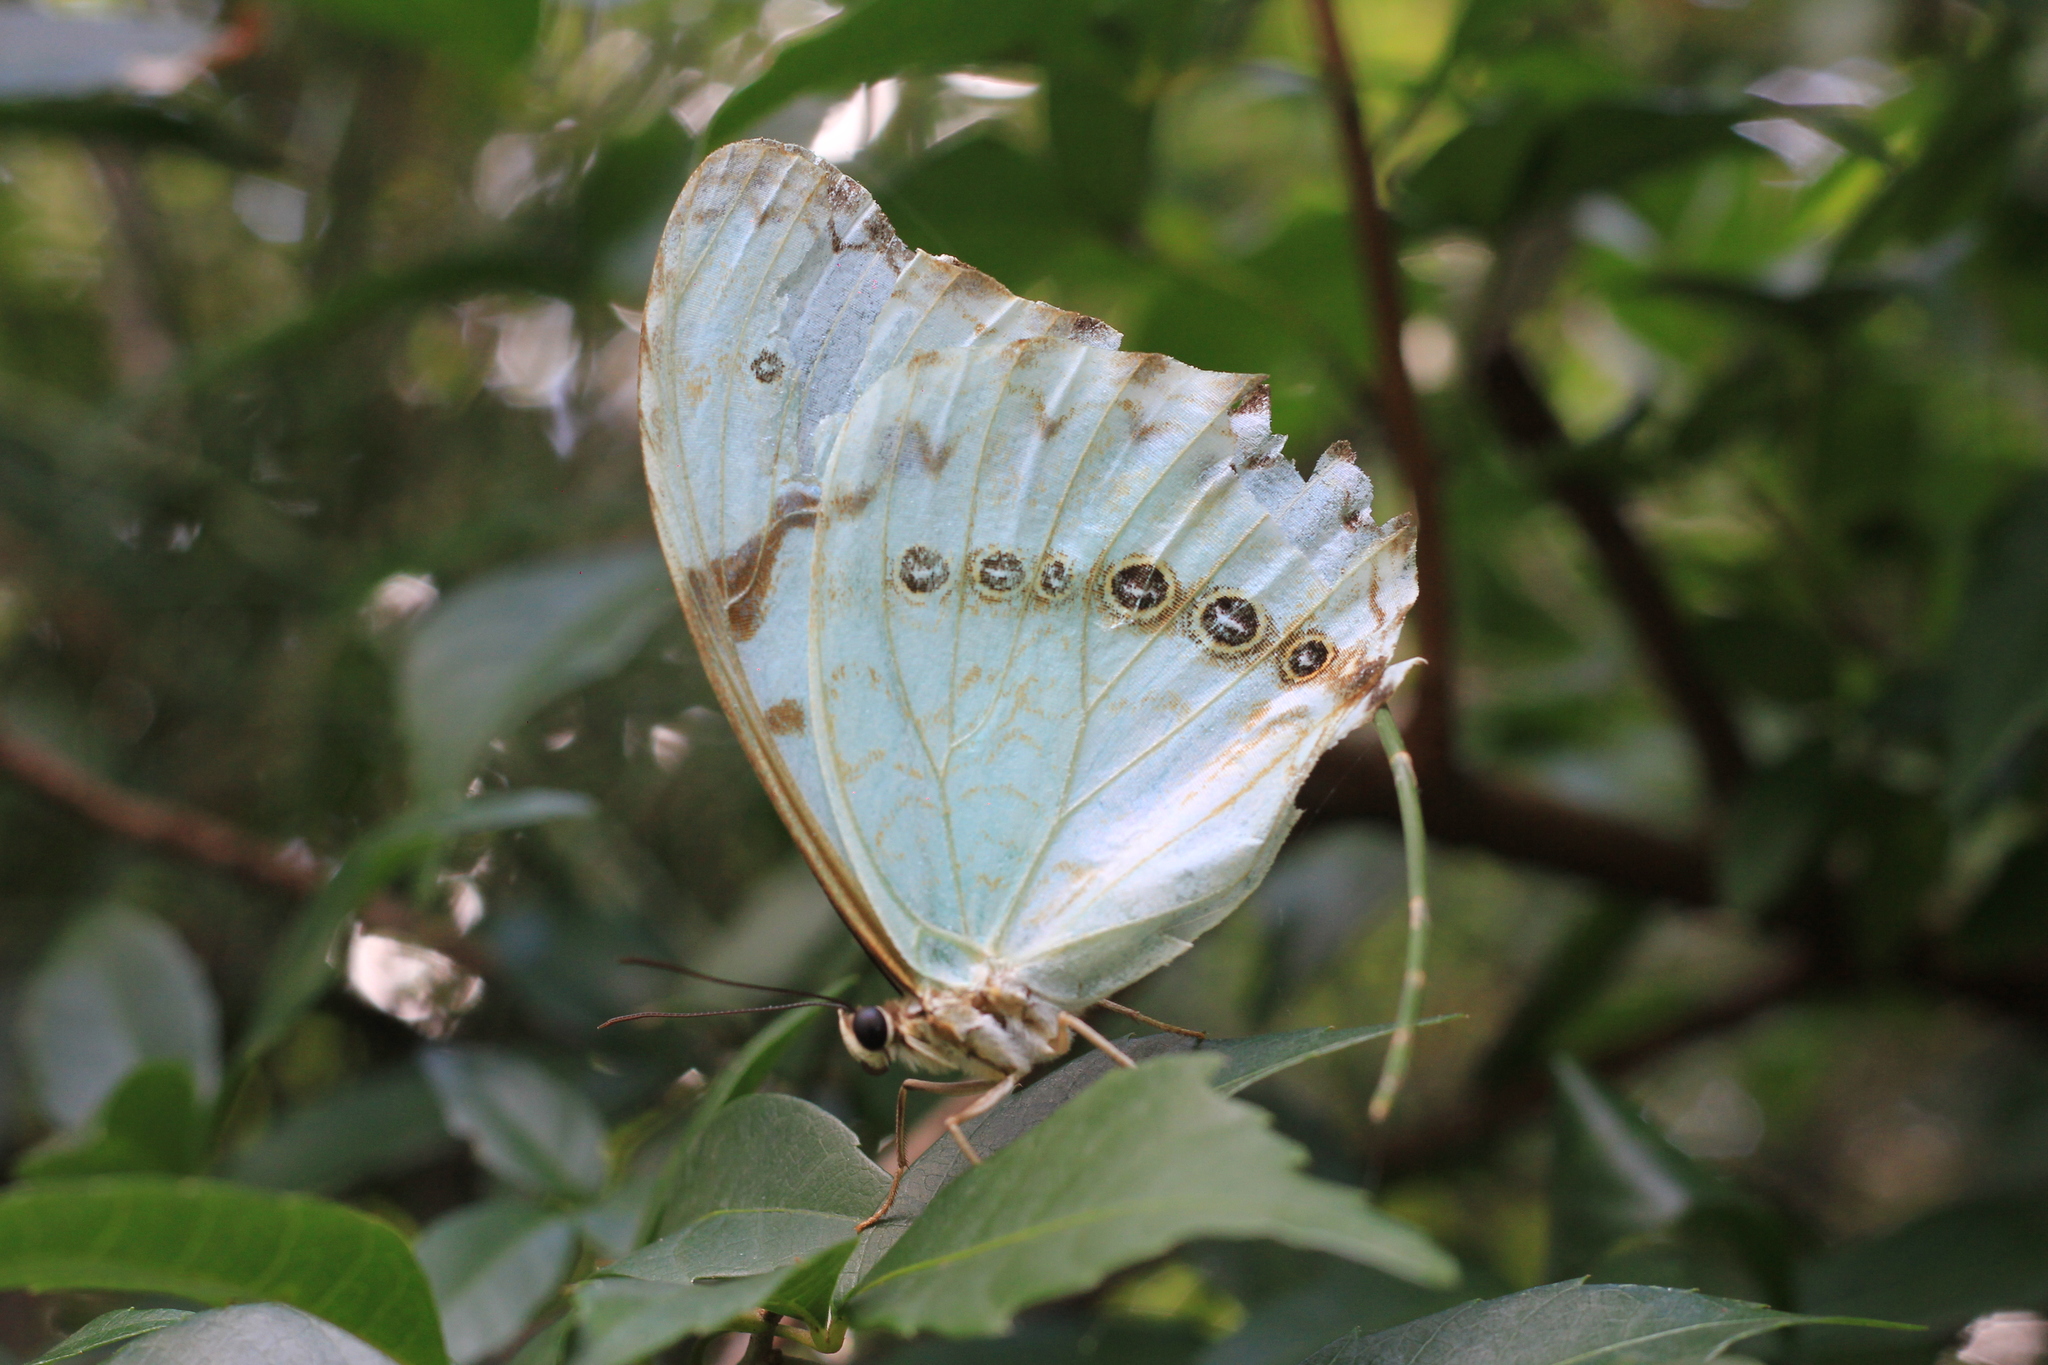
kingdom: Animalia
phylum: Arthropoda
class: Insecta
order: Lepidoptera
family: Nymphalidae
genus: Morpho
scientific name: Morpho epistrophus
